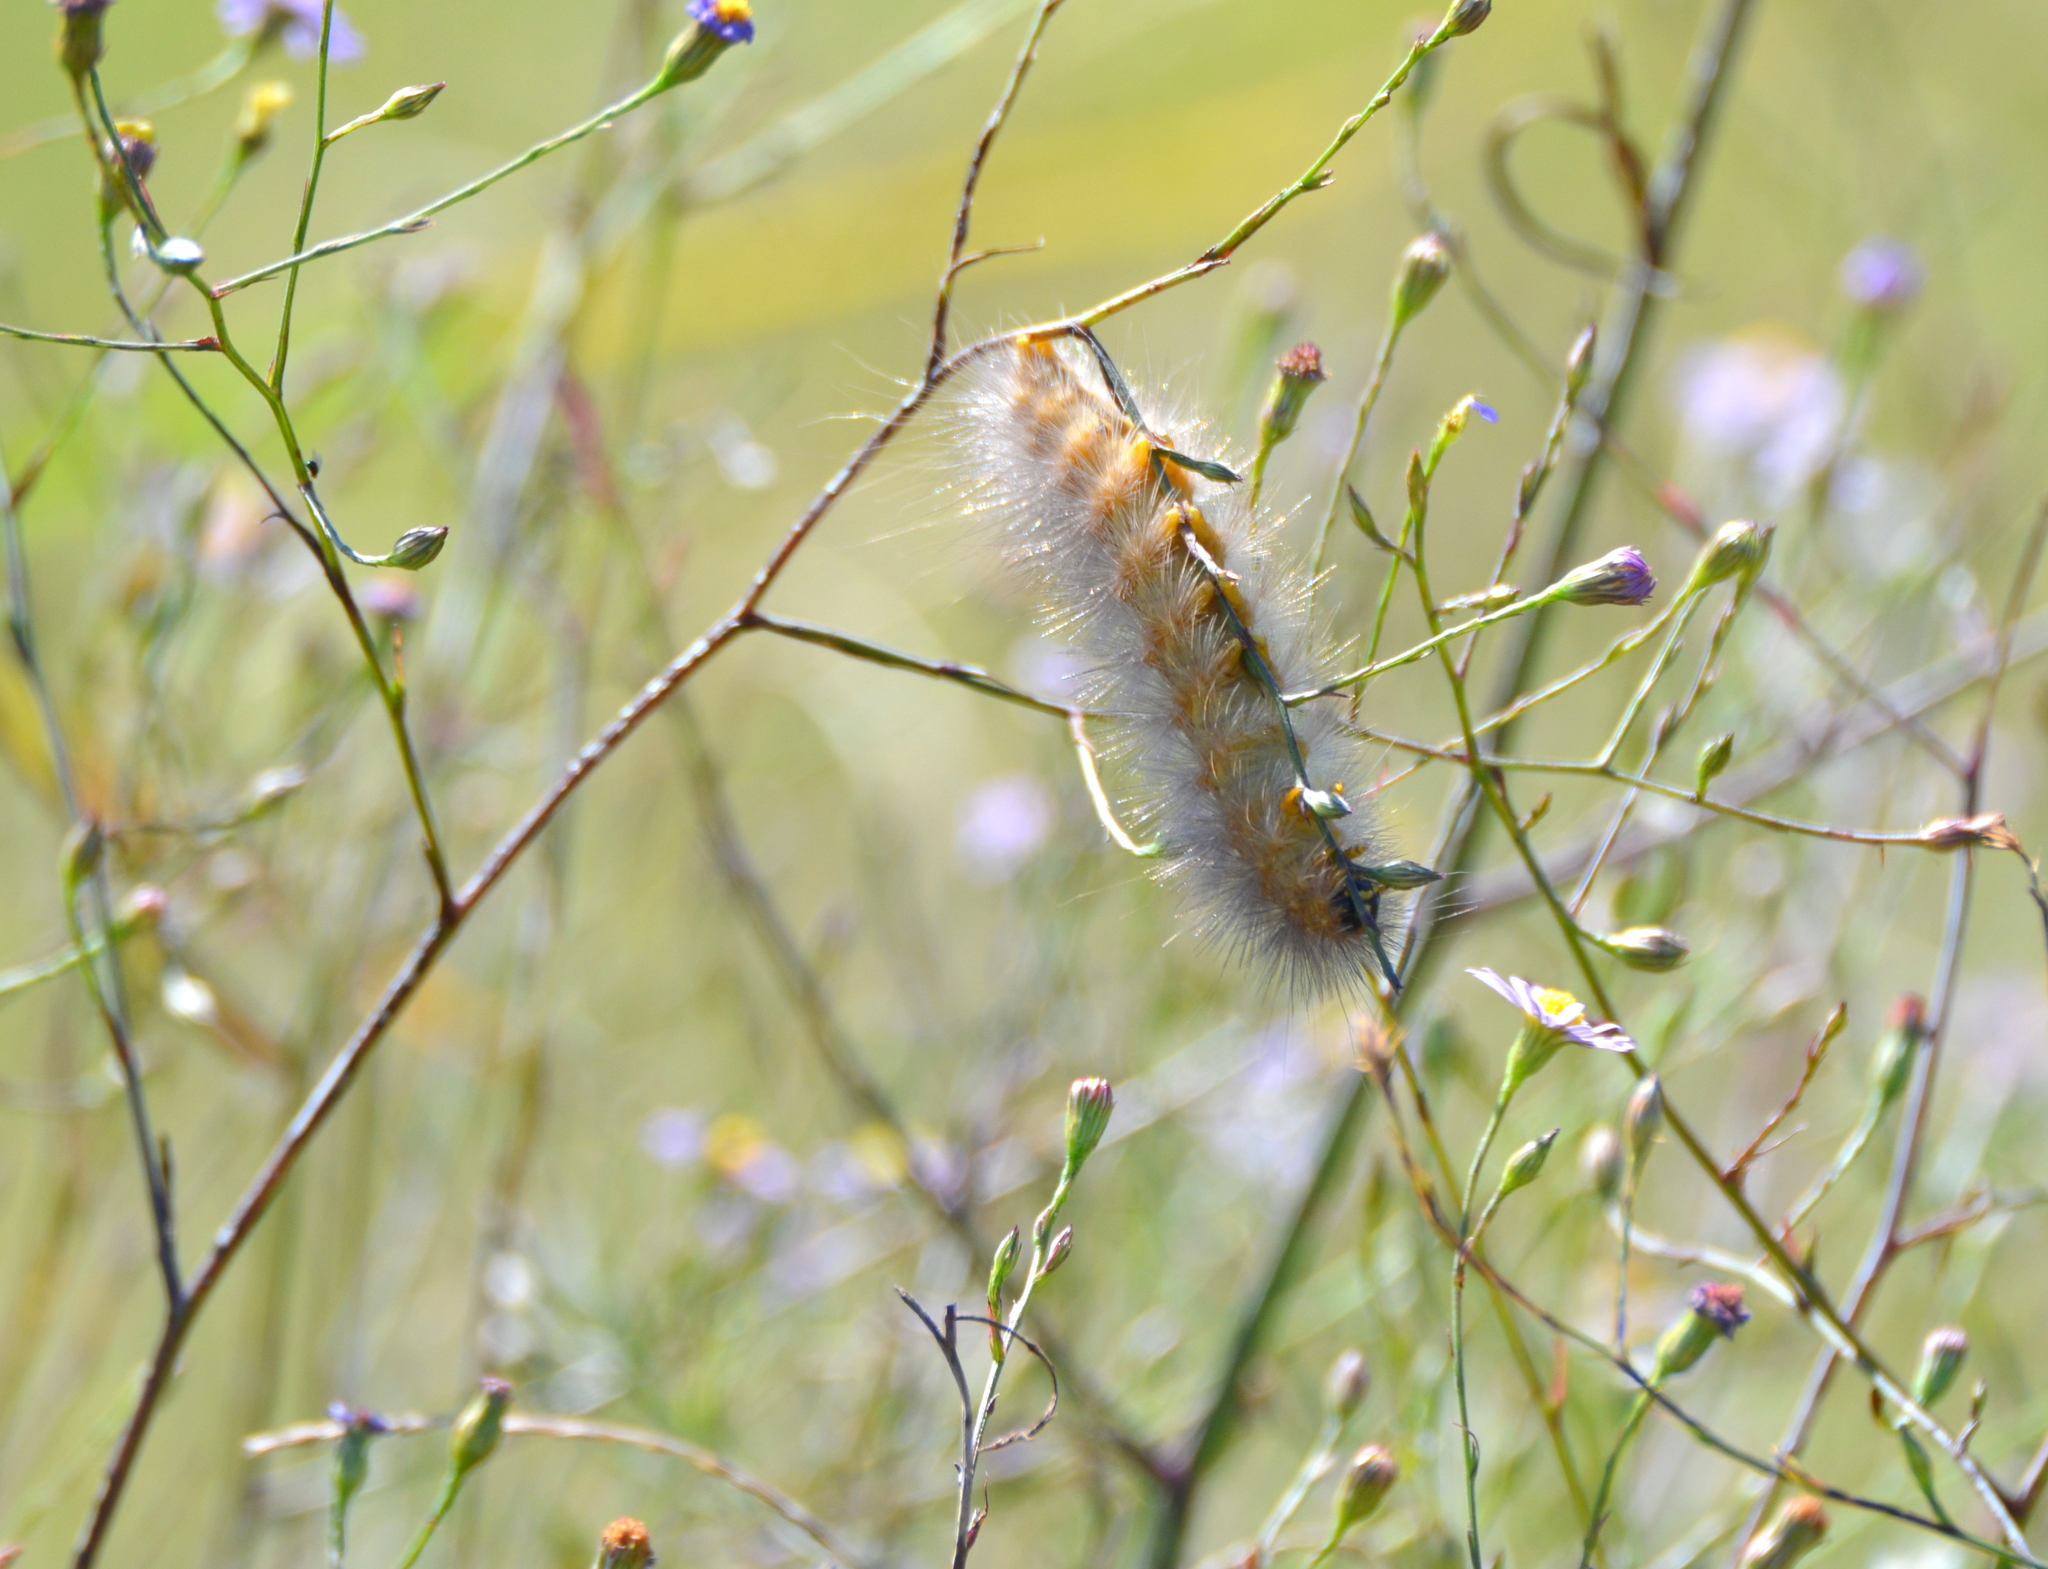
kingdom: Animalia
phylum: Arthropoda
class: Insecta
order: Lepidoptera
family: Erebidae
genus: Estigmene
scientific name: Estigmene acrea
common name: Salt marsh moth
